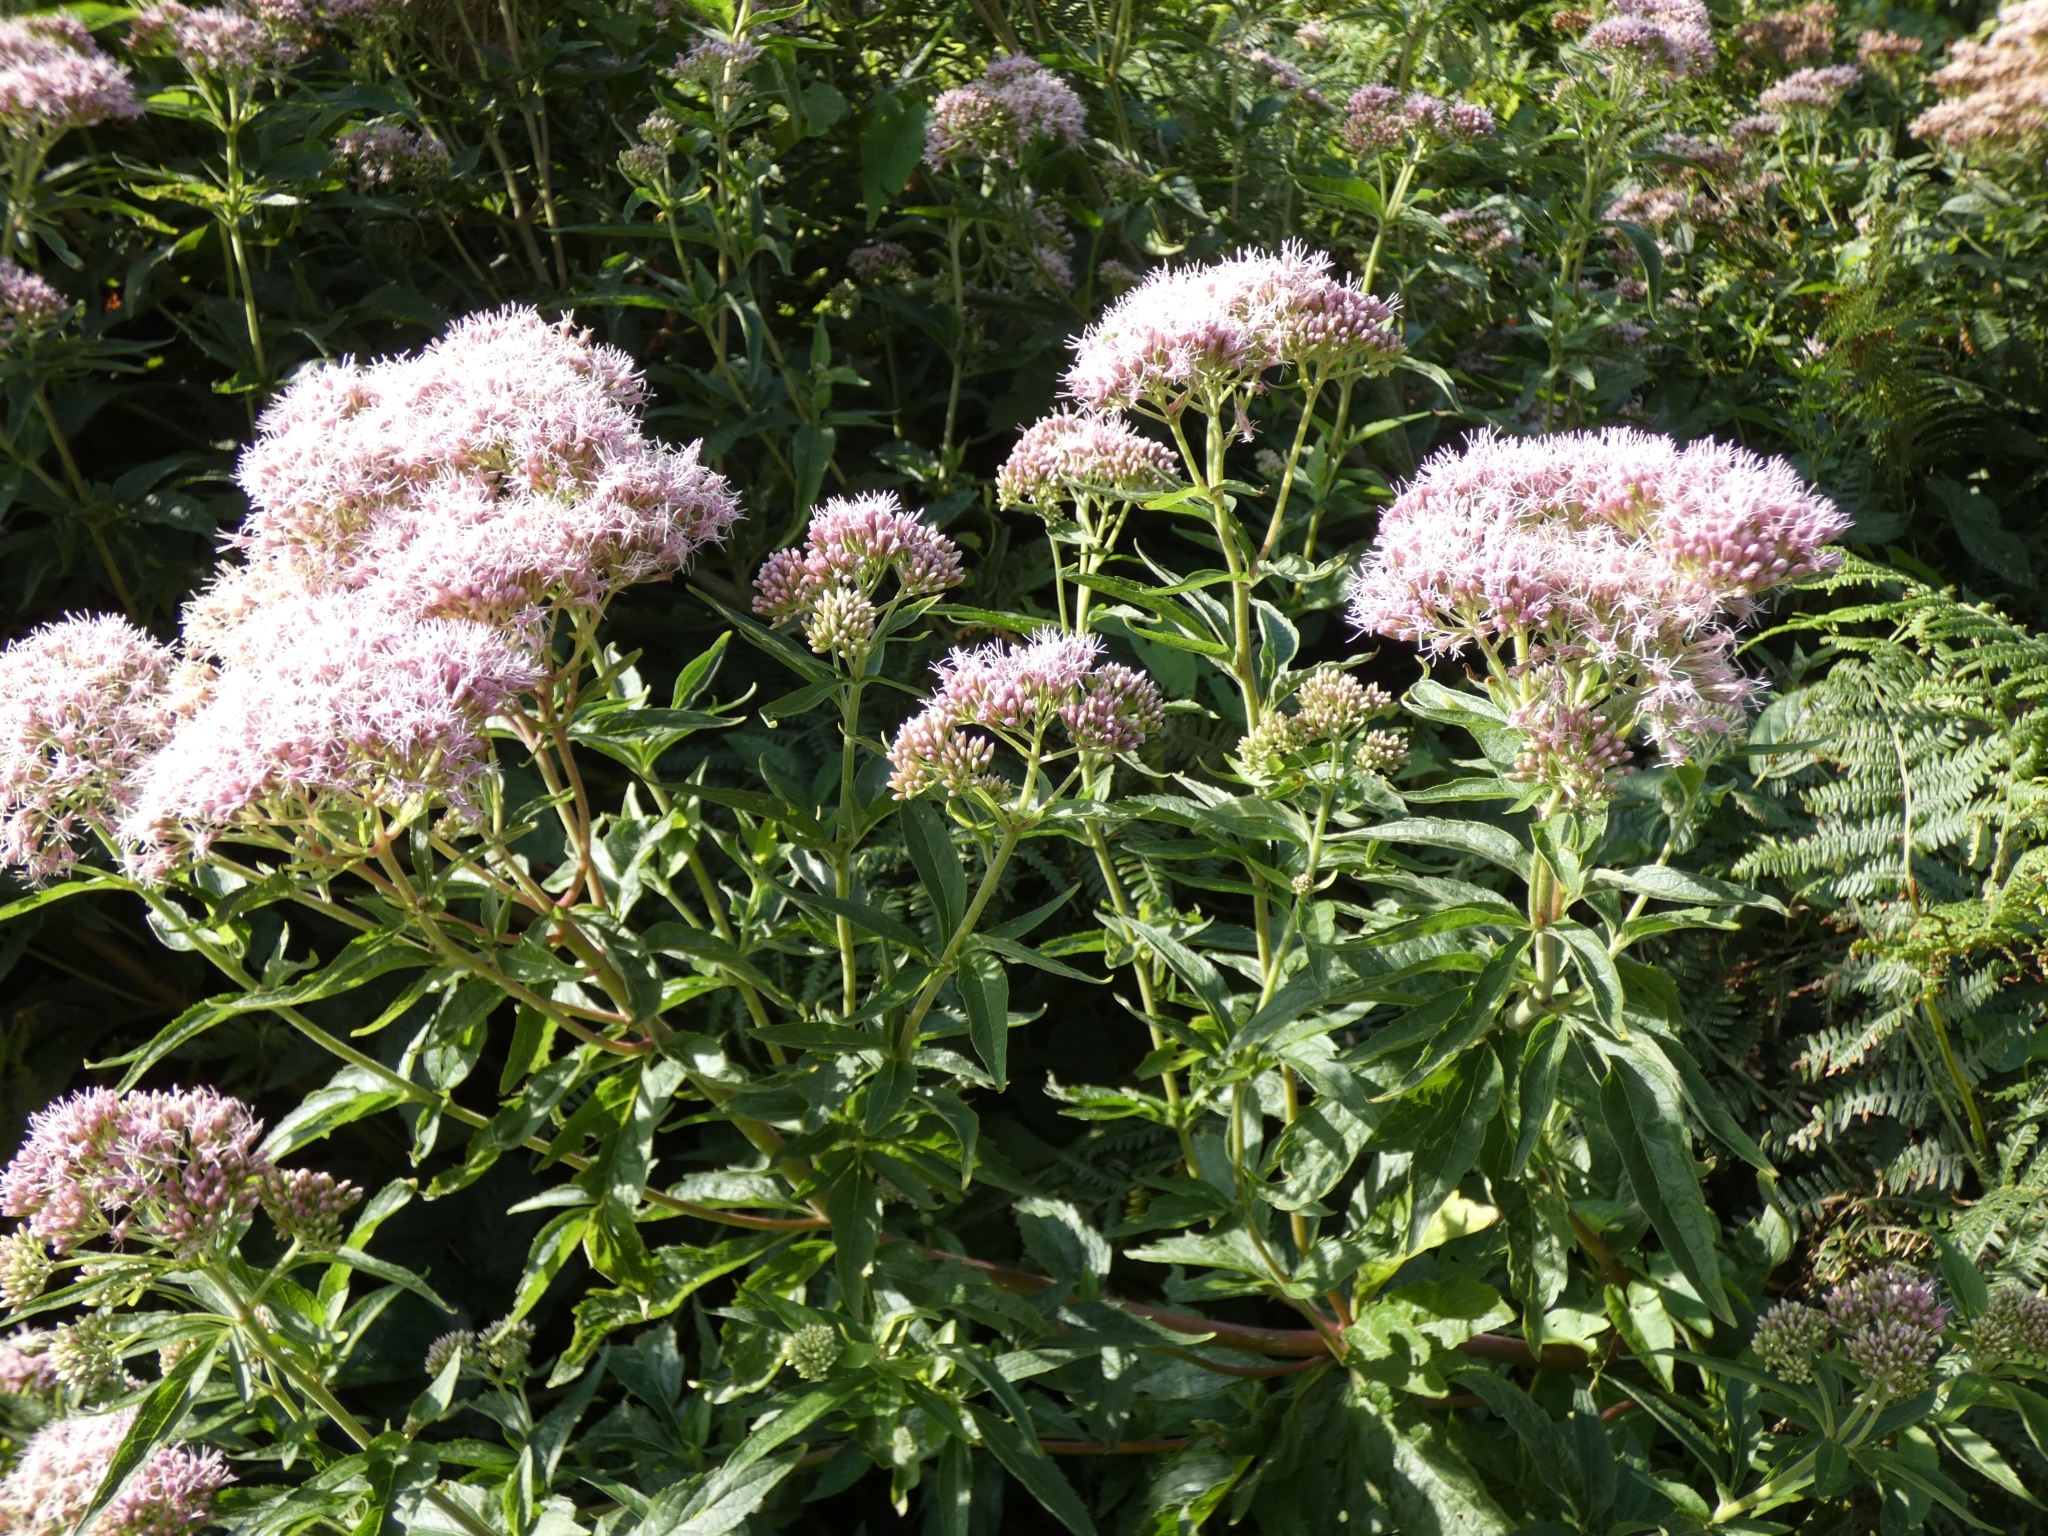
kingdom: Plantae
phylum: Tracheophyta
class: Magnoliopsida
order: Asterales
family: Asteraceae
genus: Eupatorium
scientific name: Eupatorium cannabinum
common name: Hemp-agrimony
